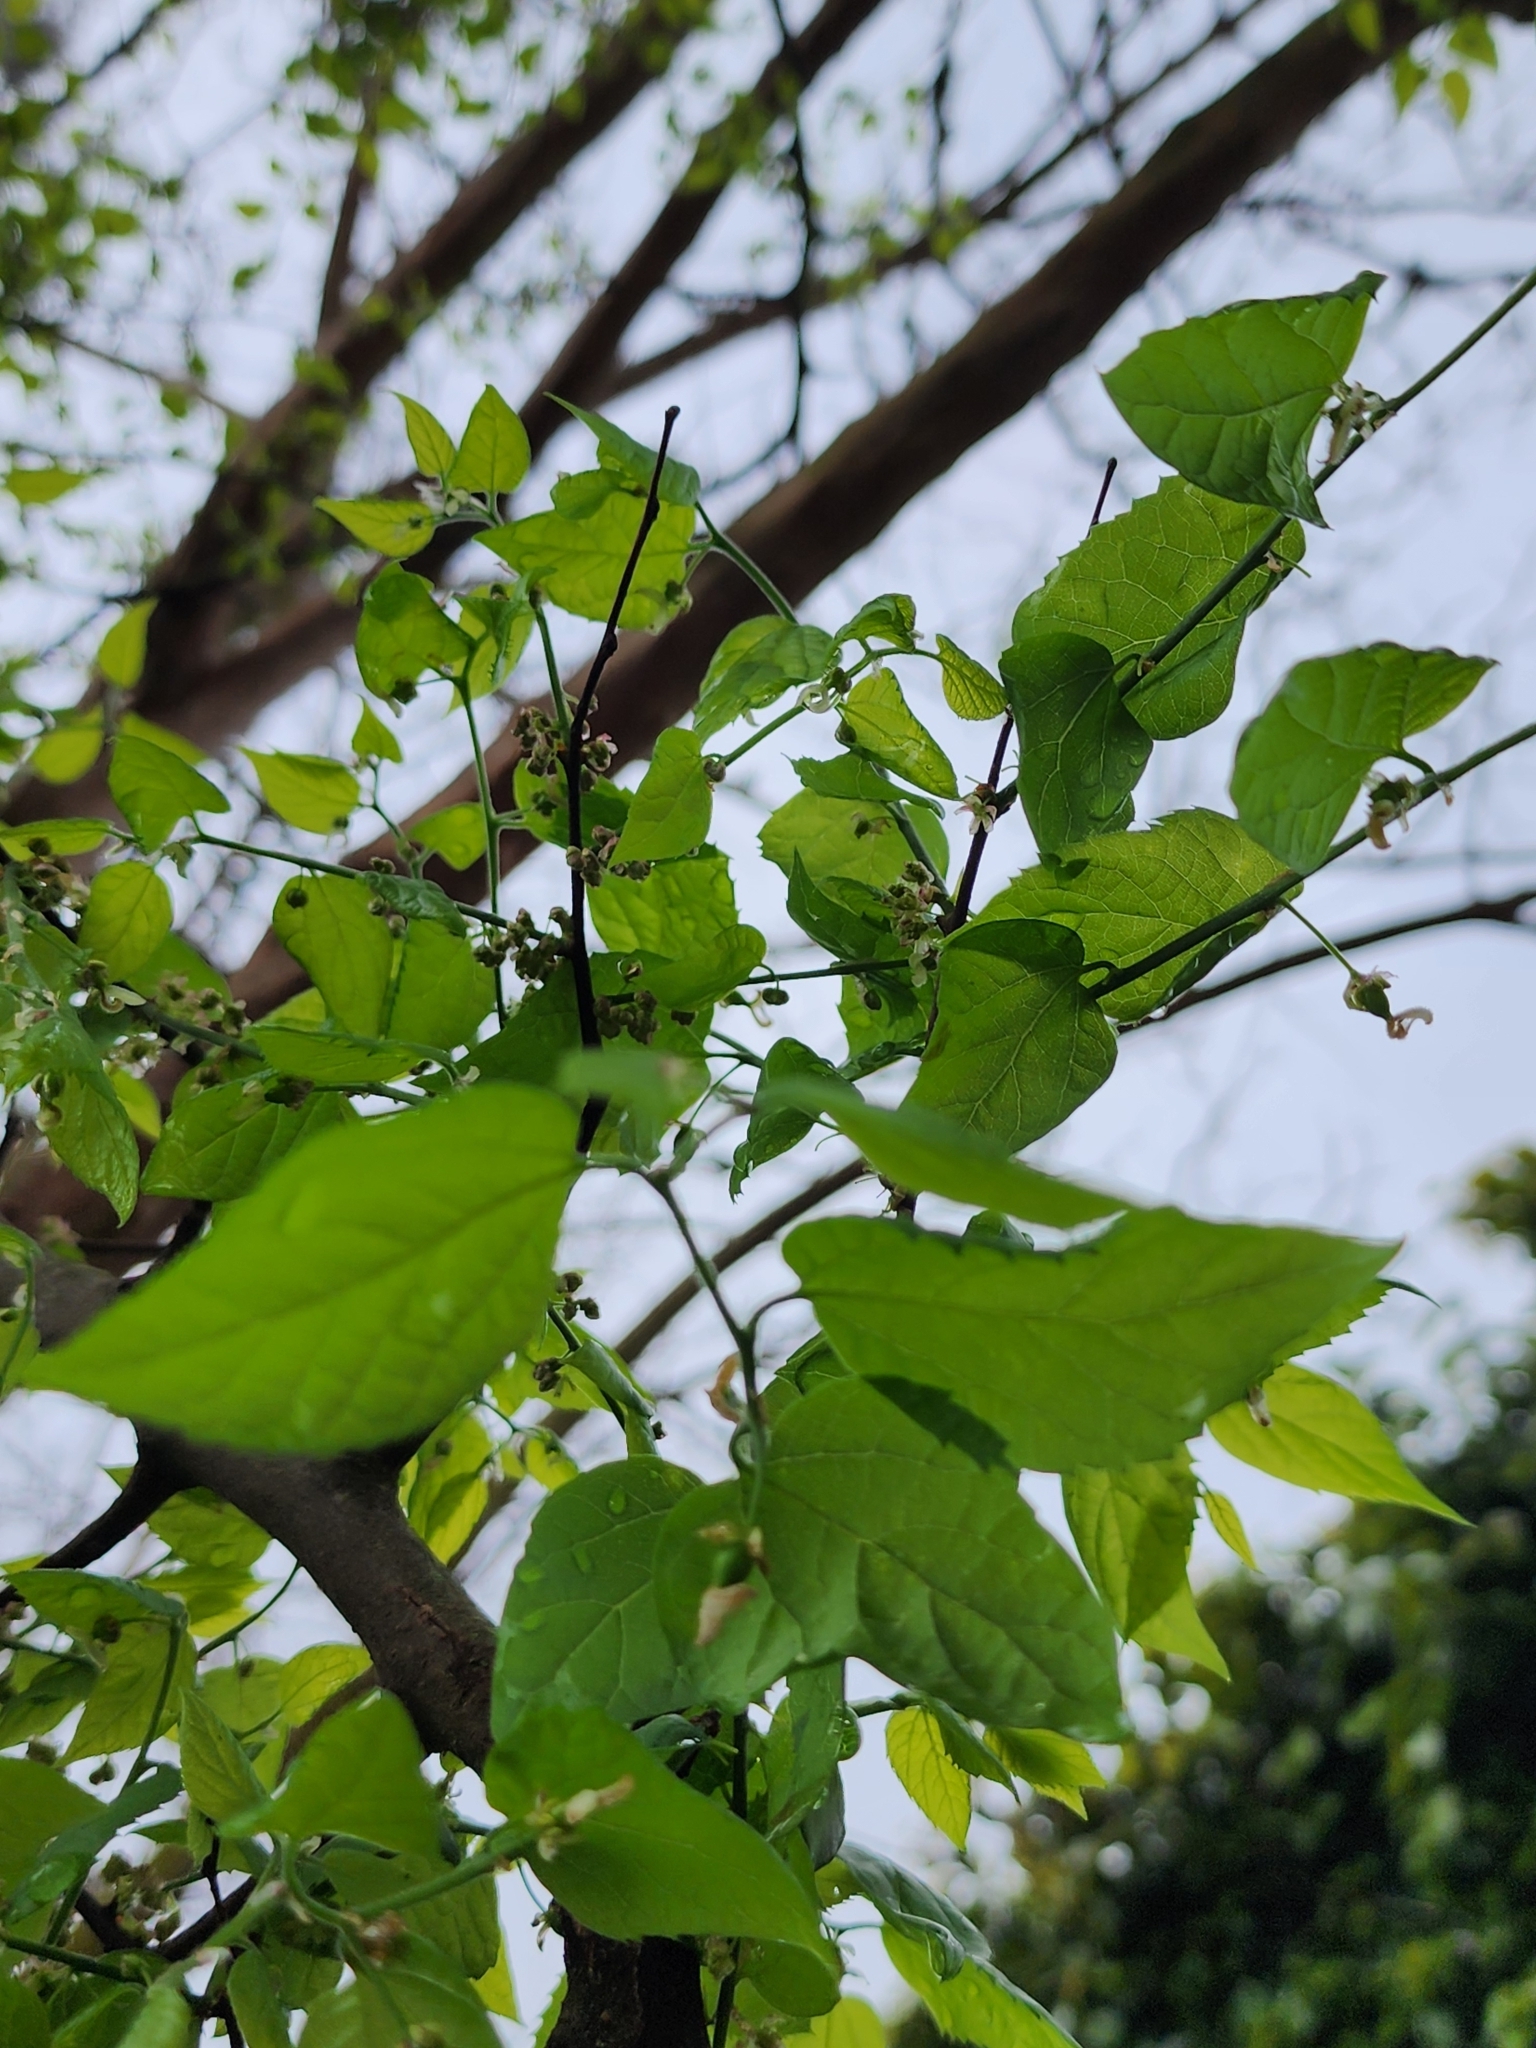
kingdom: Plantae
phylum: Tracheophyta
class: Magnoliopsida
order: Rosales
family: Cannabaceae
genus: Celtis
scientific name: Celtis occidentalis
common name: Common hackberry
